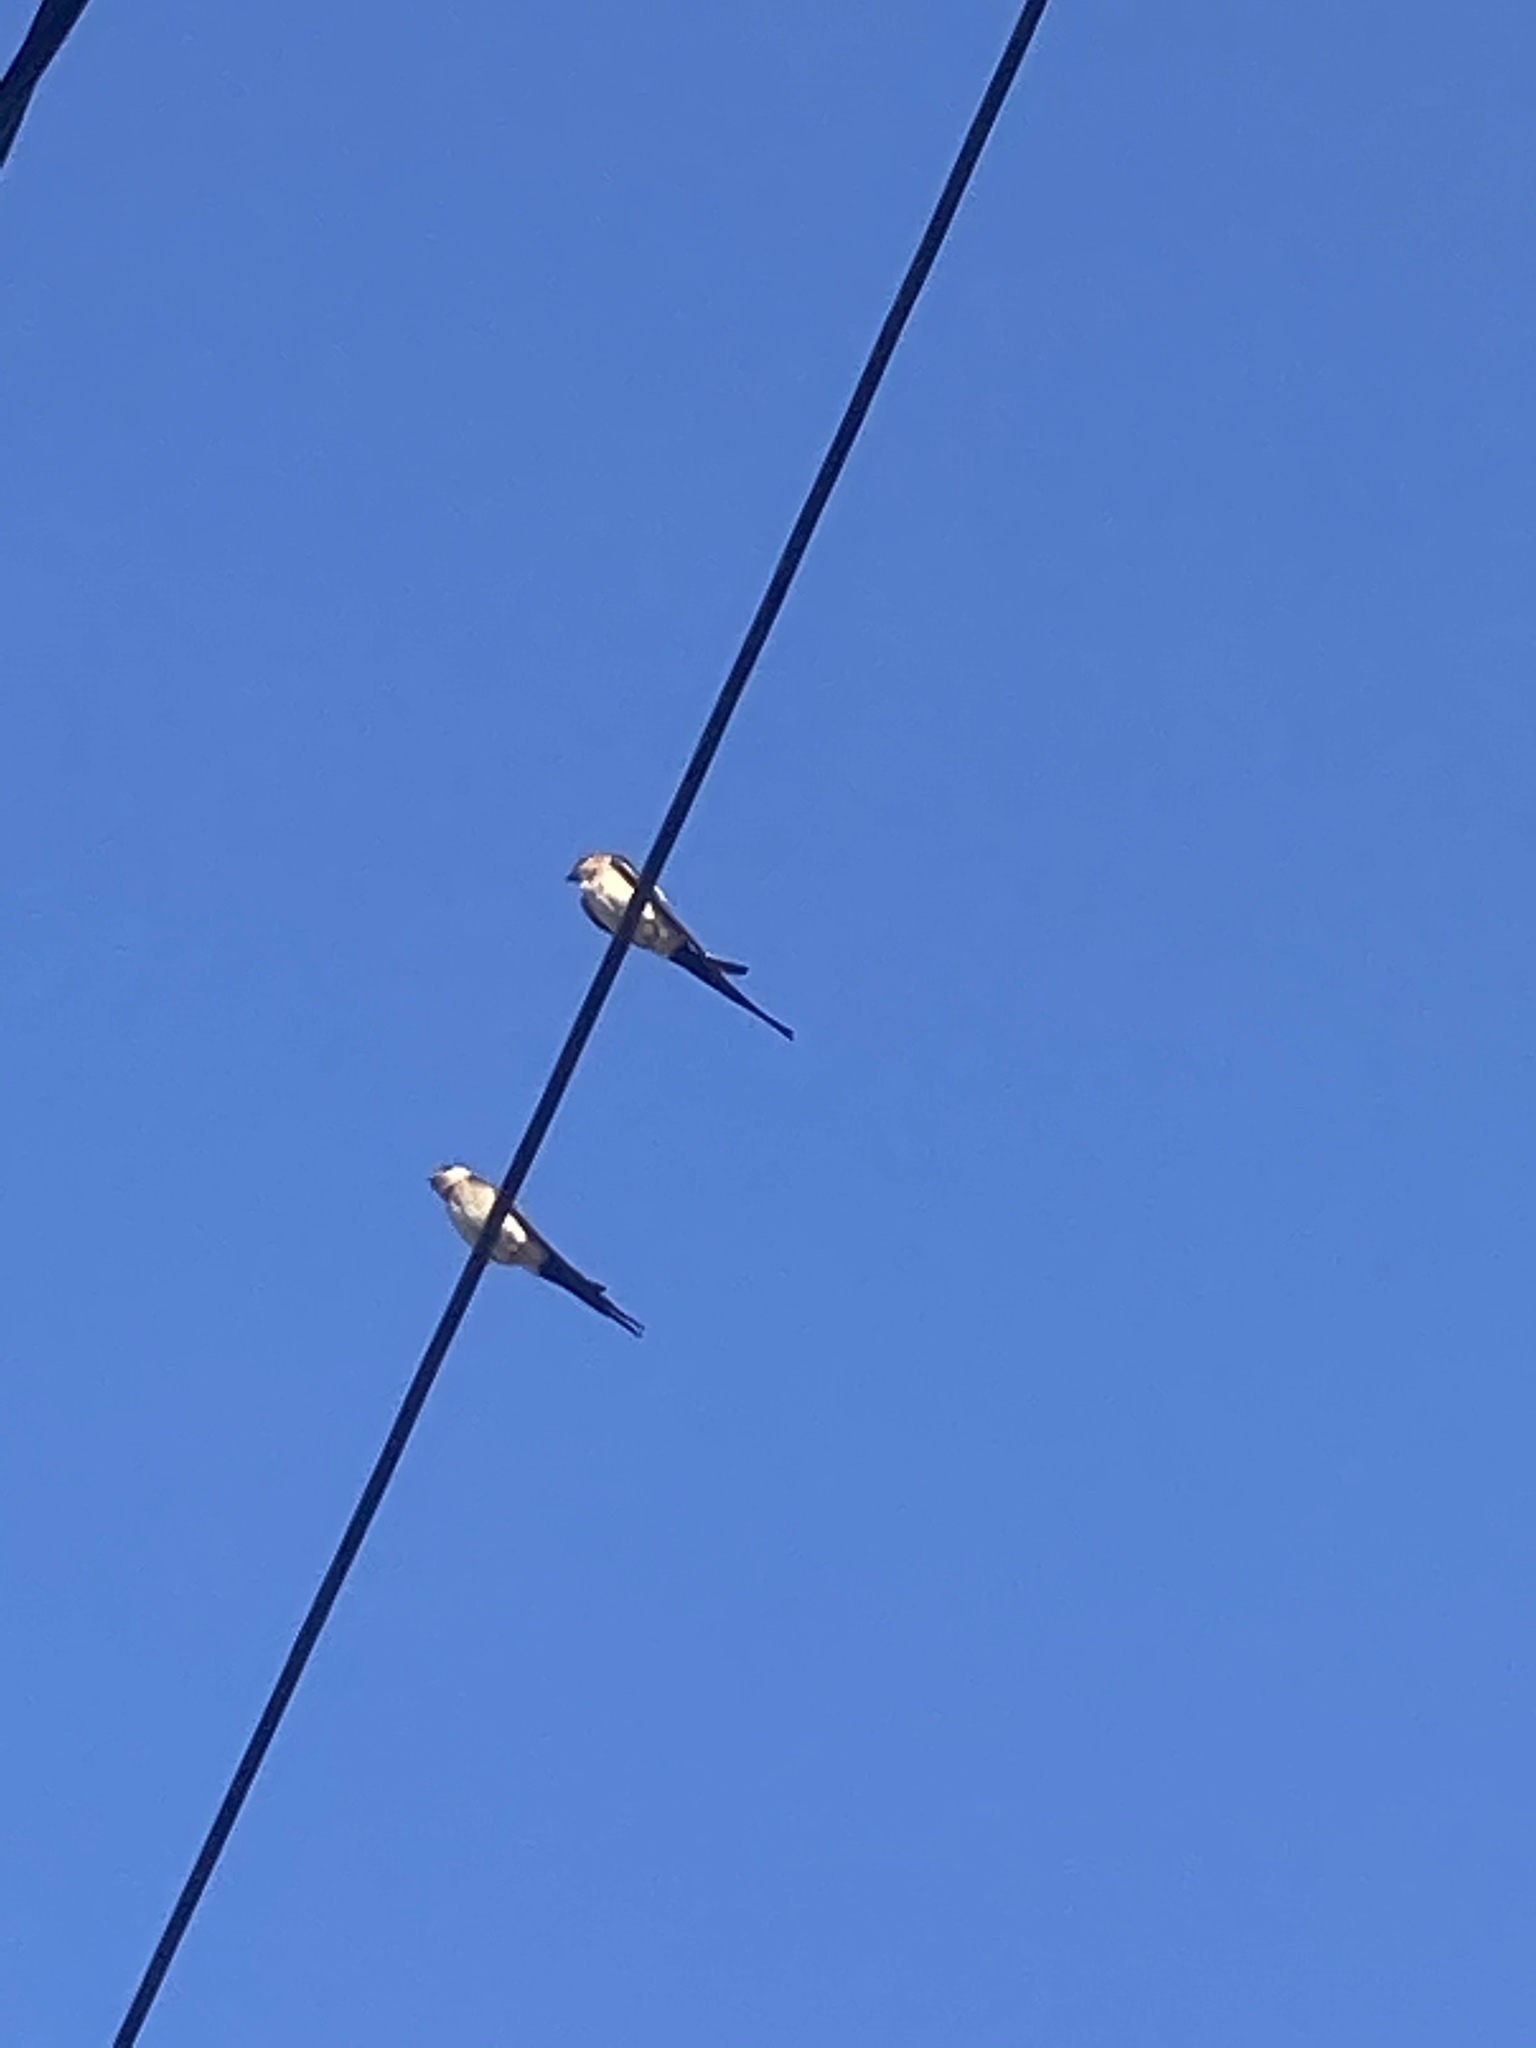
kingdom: Animalia
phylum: Chordata
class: Aves
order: Passeriformes
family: Hirundinidae
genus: Cecropis
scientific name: Cecropis daurica
